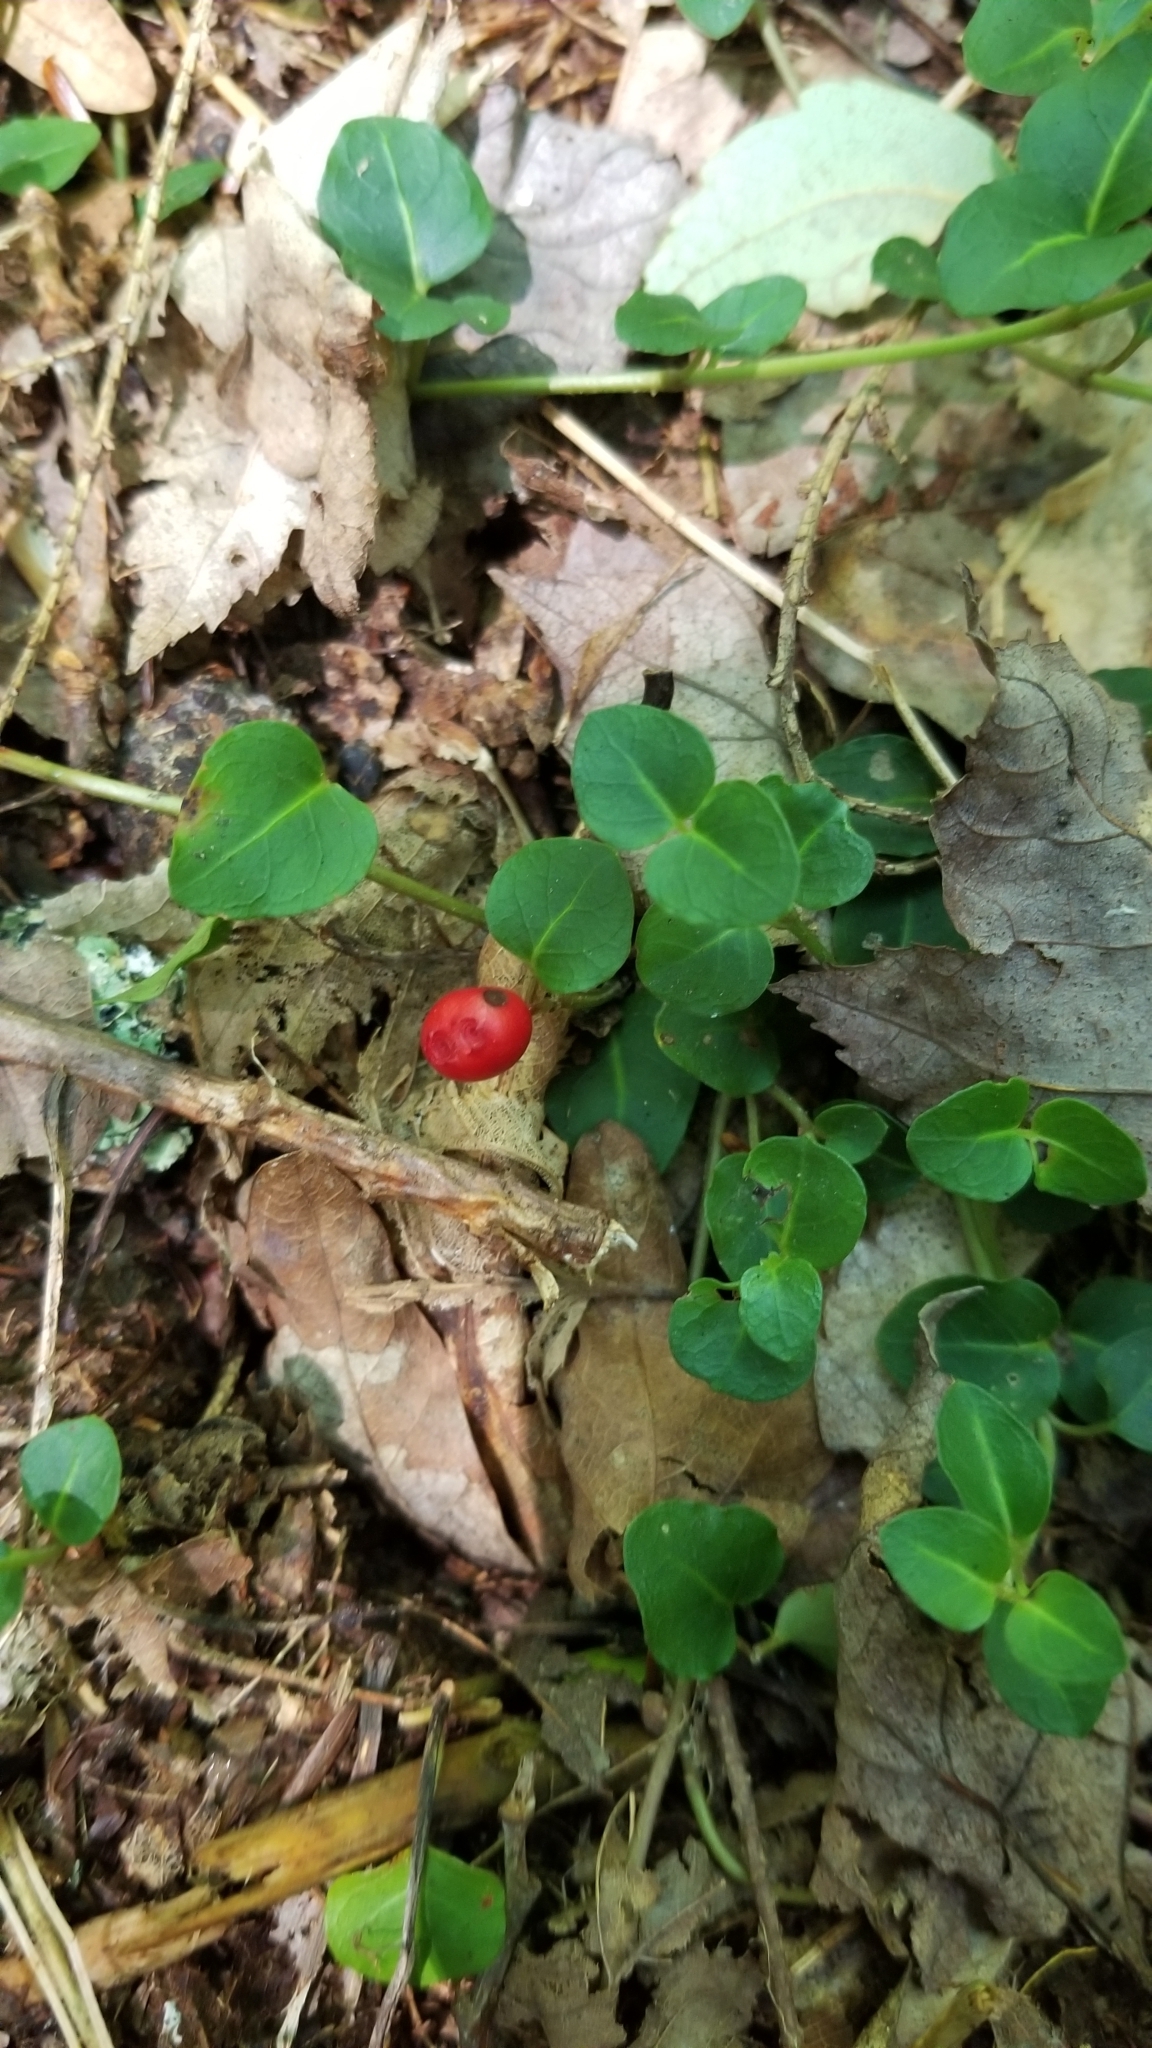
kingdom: Plantae
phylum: Tracheophyta
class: Magnoliopsida
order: Gentianales
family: Rubiaceae
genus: Mitchella
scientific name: Mitchella repens
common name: Partridge-berry
